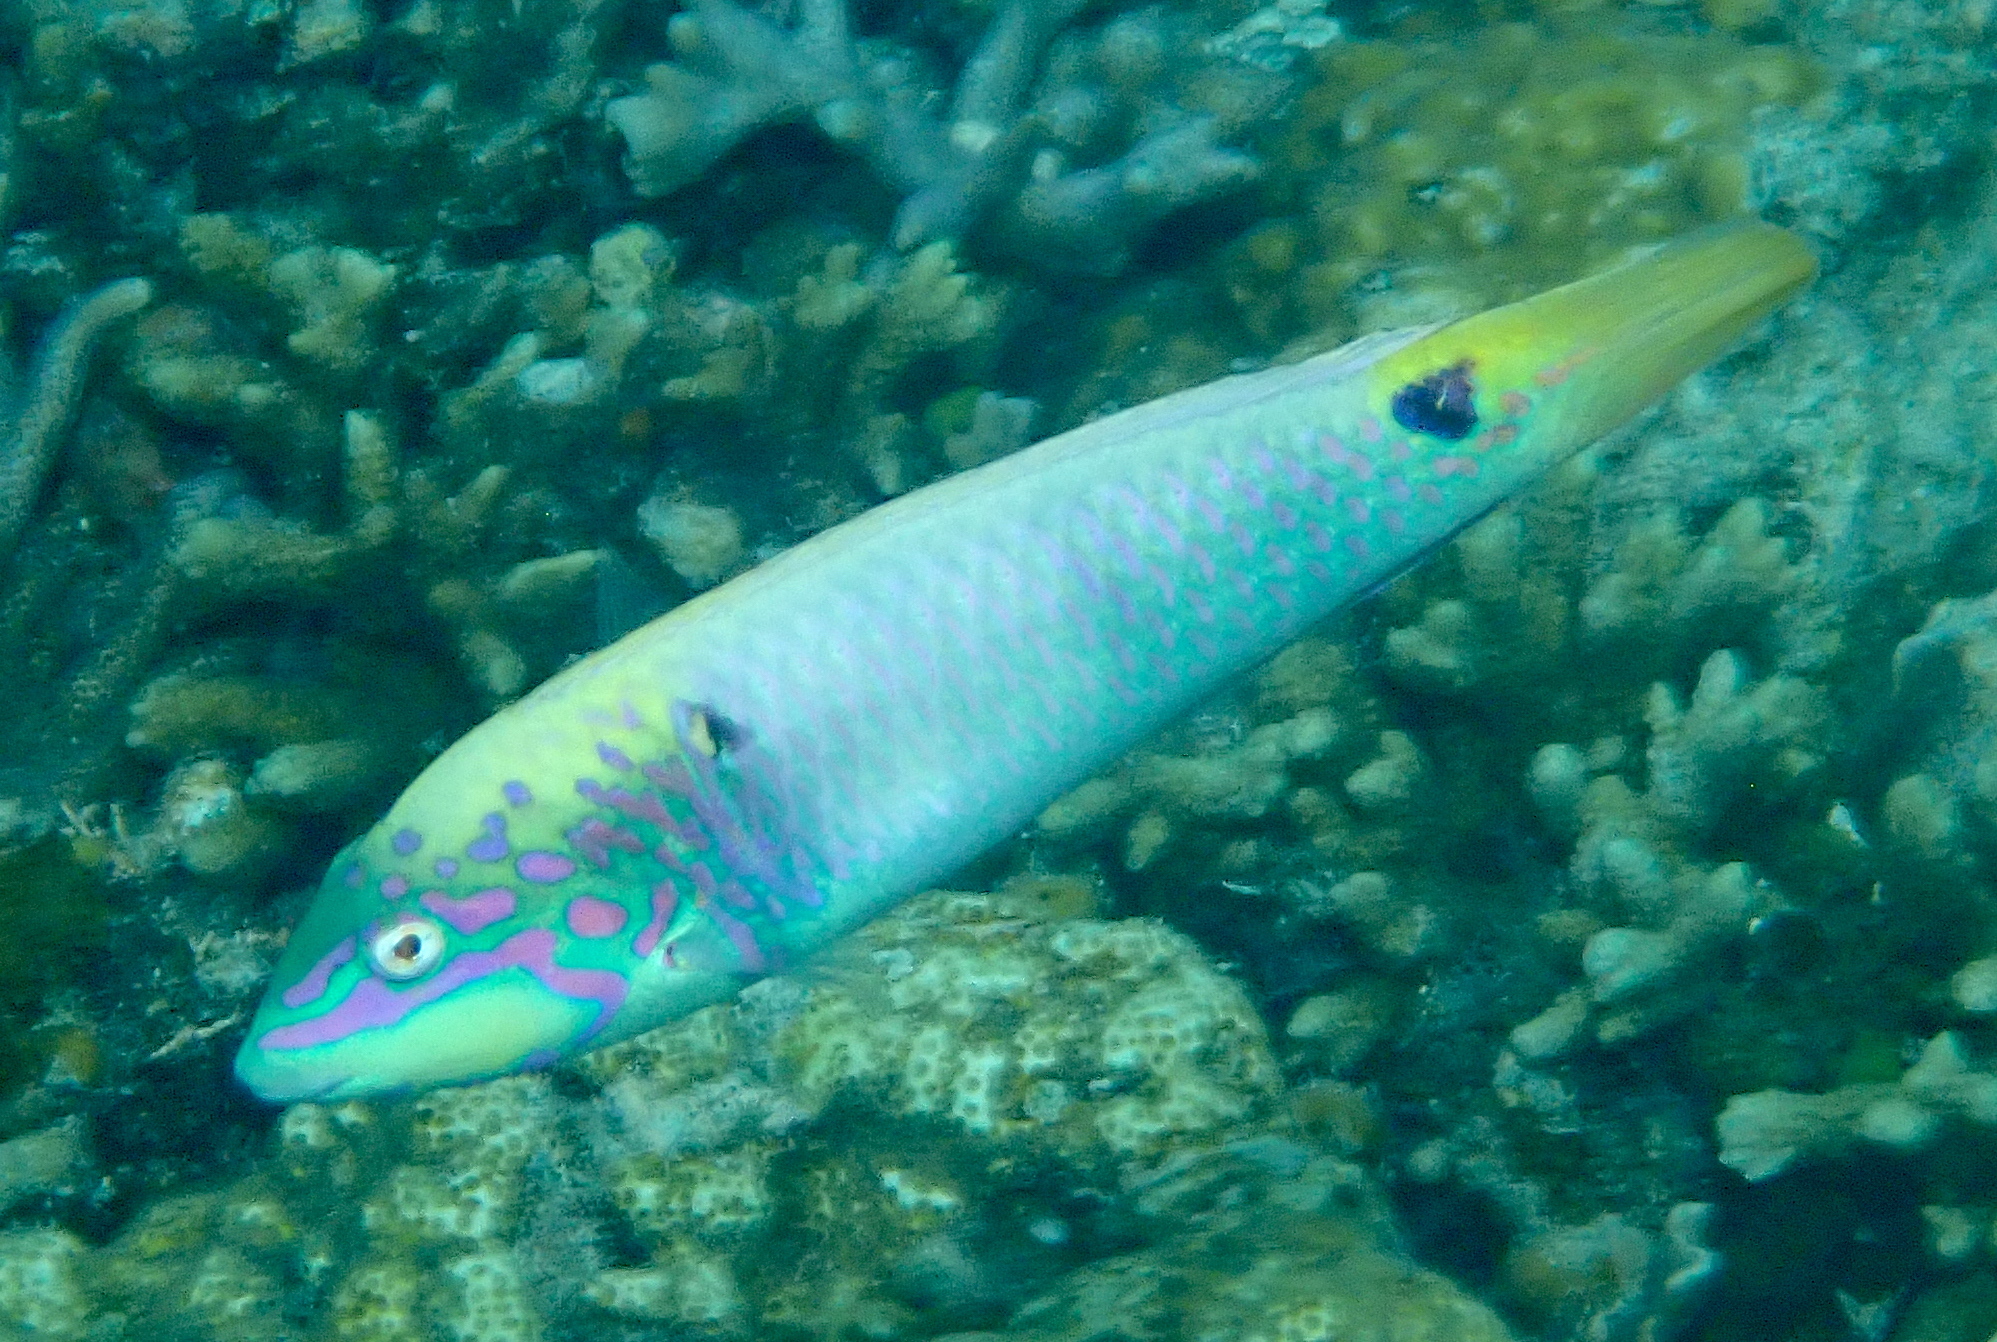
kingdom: Animalia
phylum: Chordata
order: Perciformes
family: Labridae
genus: Halichoeres
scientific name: Halichoeres trimaculatus
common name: Three-spot wrasse
